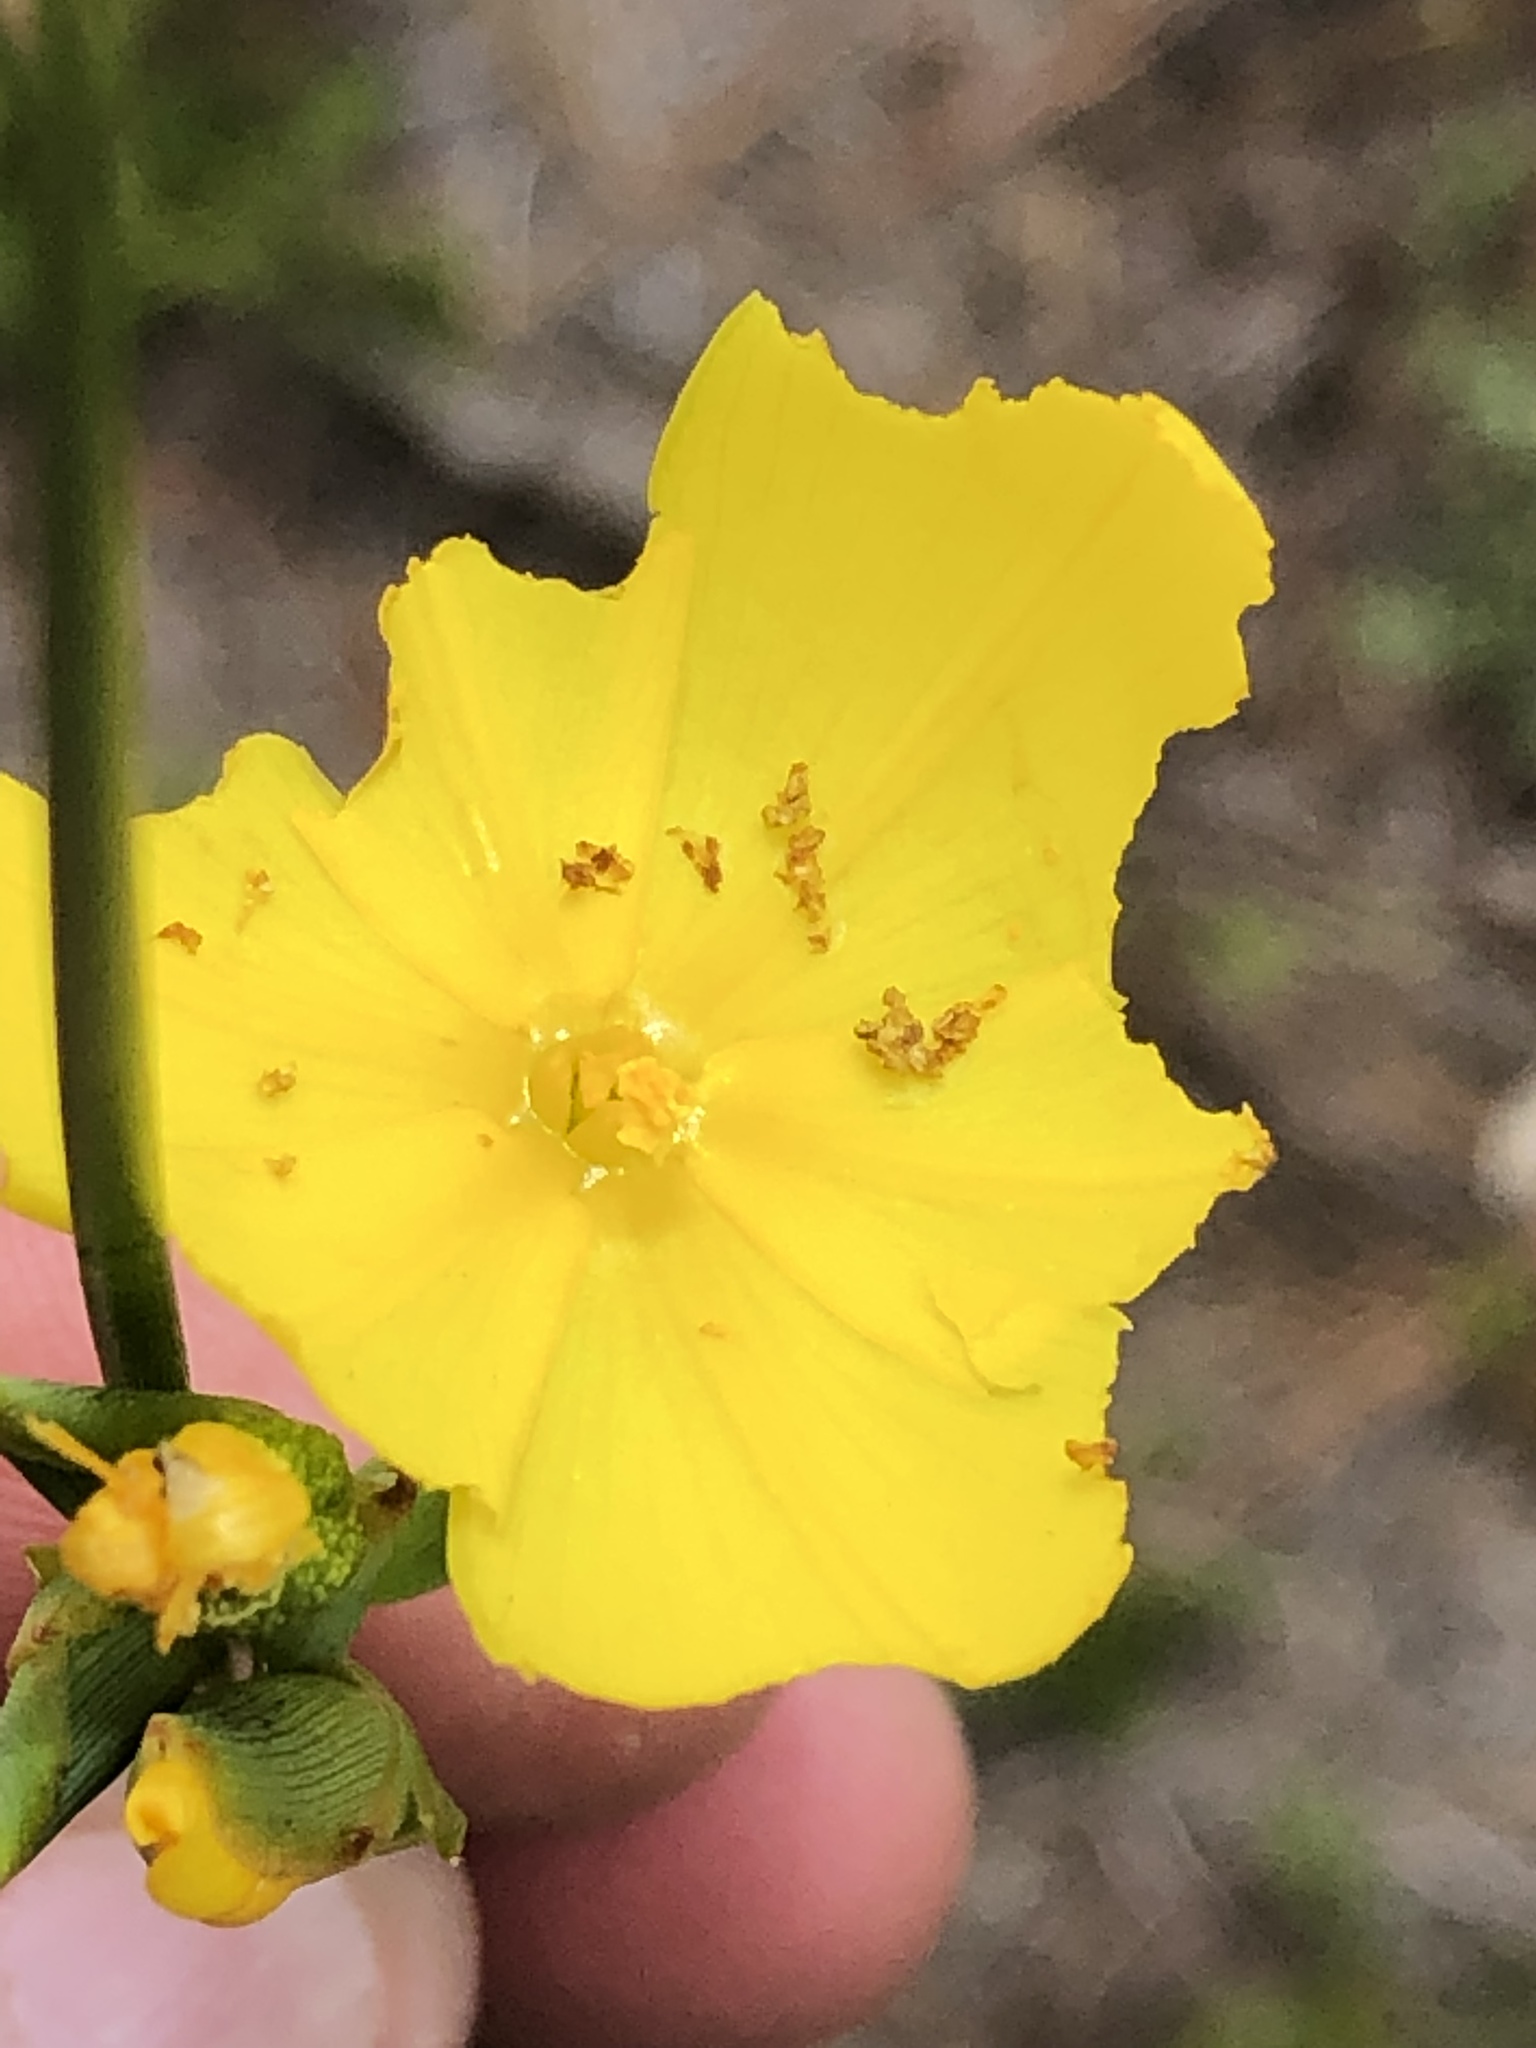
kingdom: Plantae
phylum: Tracheophyta
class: Liliopsida
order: Asparagales
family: Iridaceae
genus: Bobartia
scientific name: Bobartia aphylla
